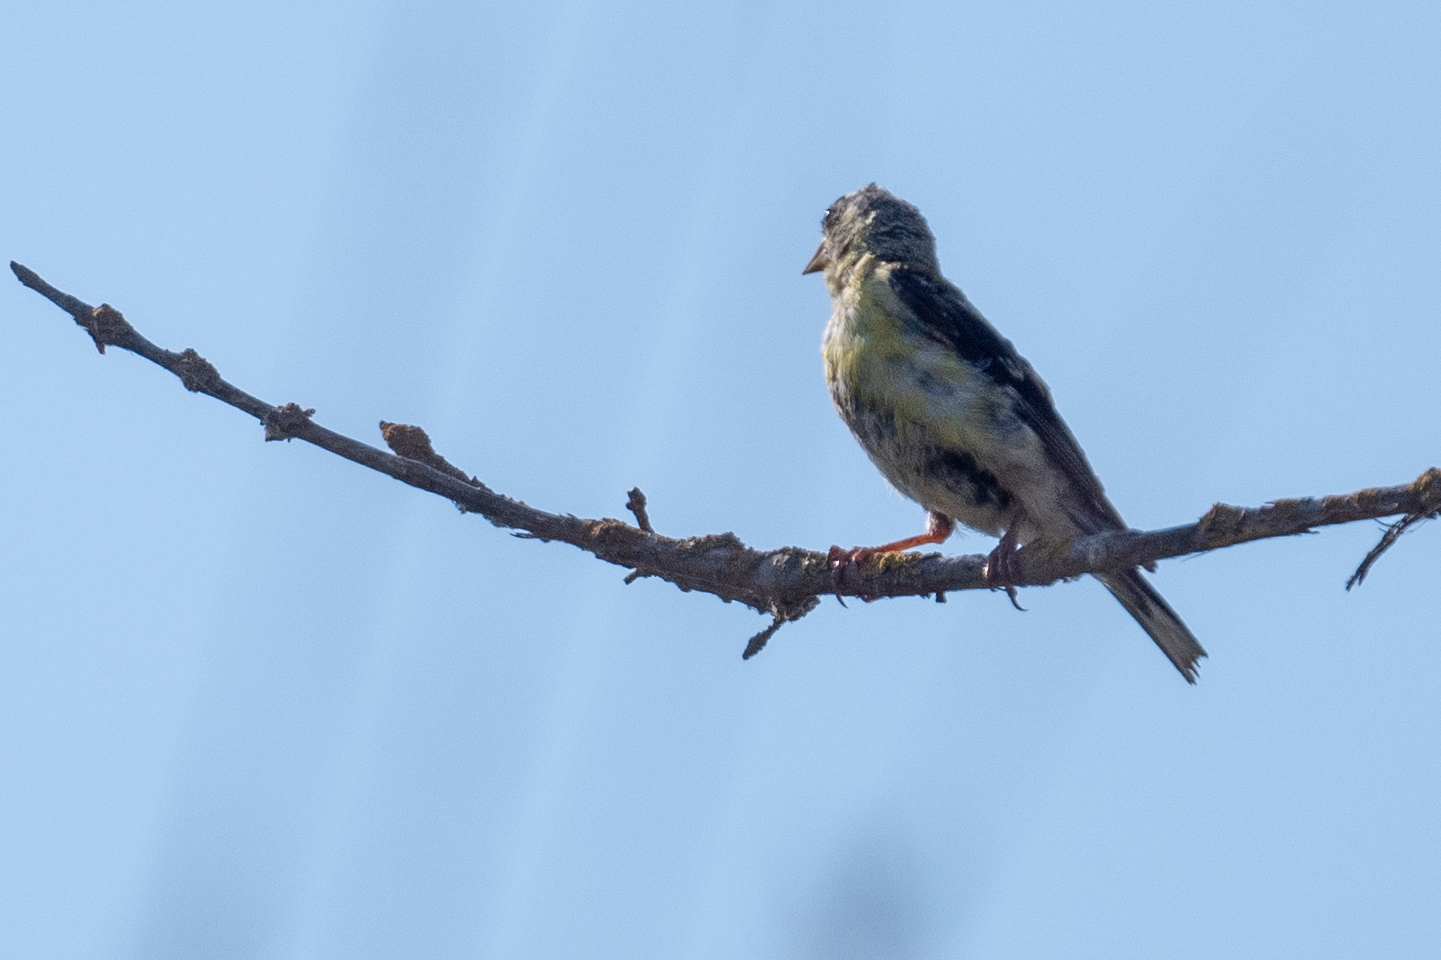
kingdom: Animalia
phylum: Chordata
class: Aves
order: Passeriformes
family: Fringillidae
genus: Spinus
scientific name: Spinus psaltria
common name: Lesser goldfinch
